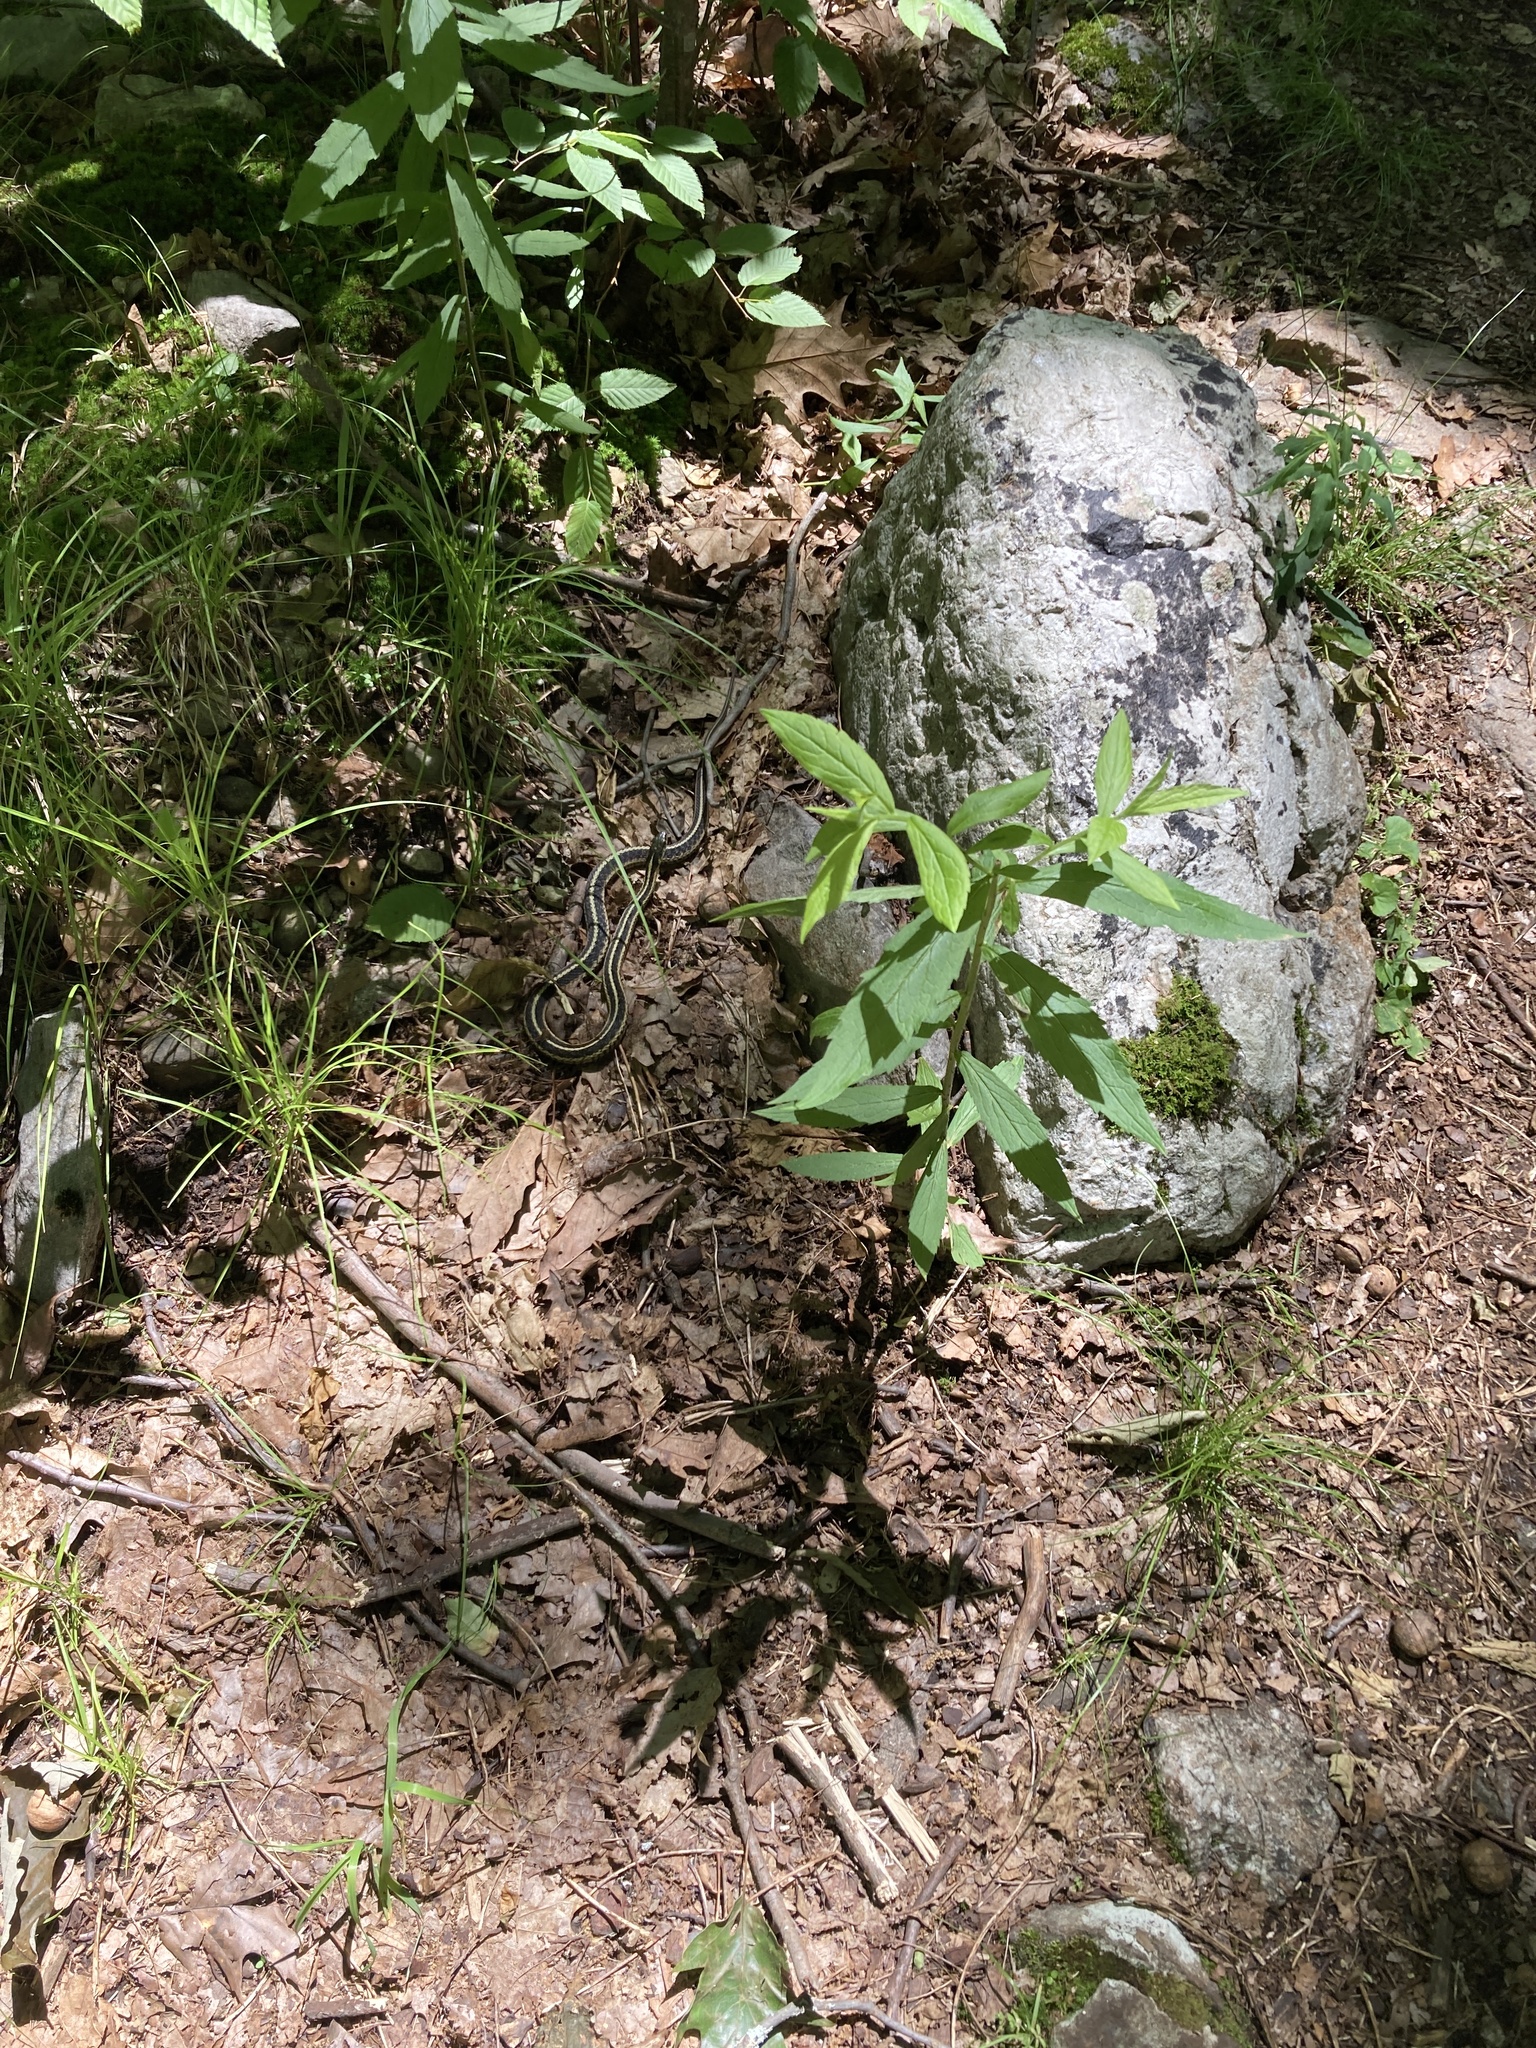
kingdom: Animalia
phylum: Chordata
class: Squamata
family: Colubridae
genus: Thamnophis
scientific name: Thamnophis sirtalis
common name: Common garter snake
